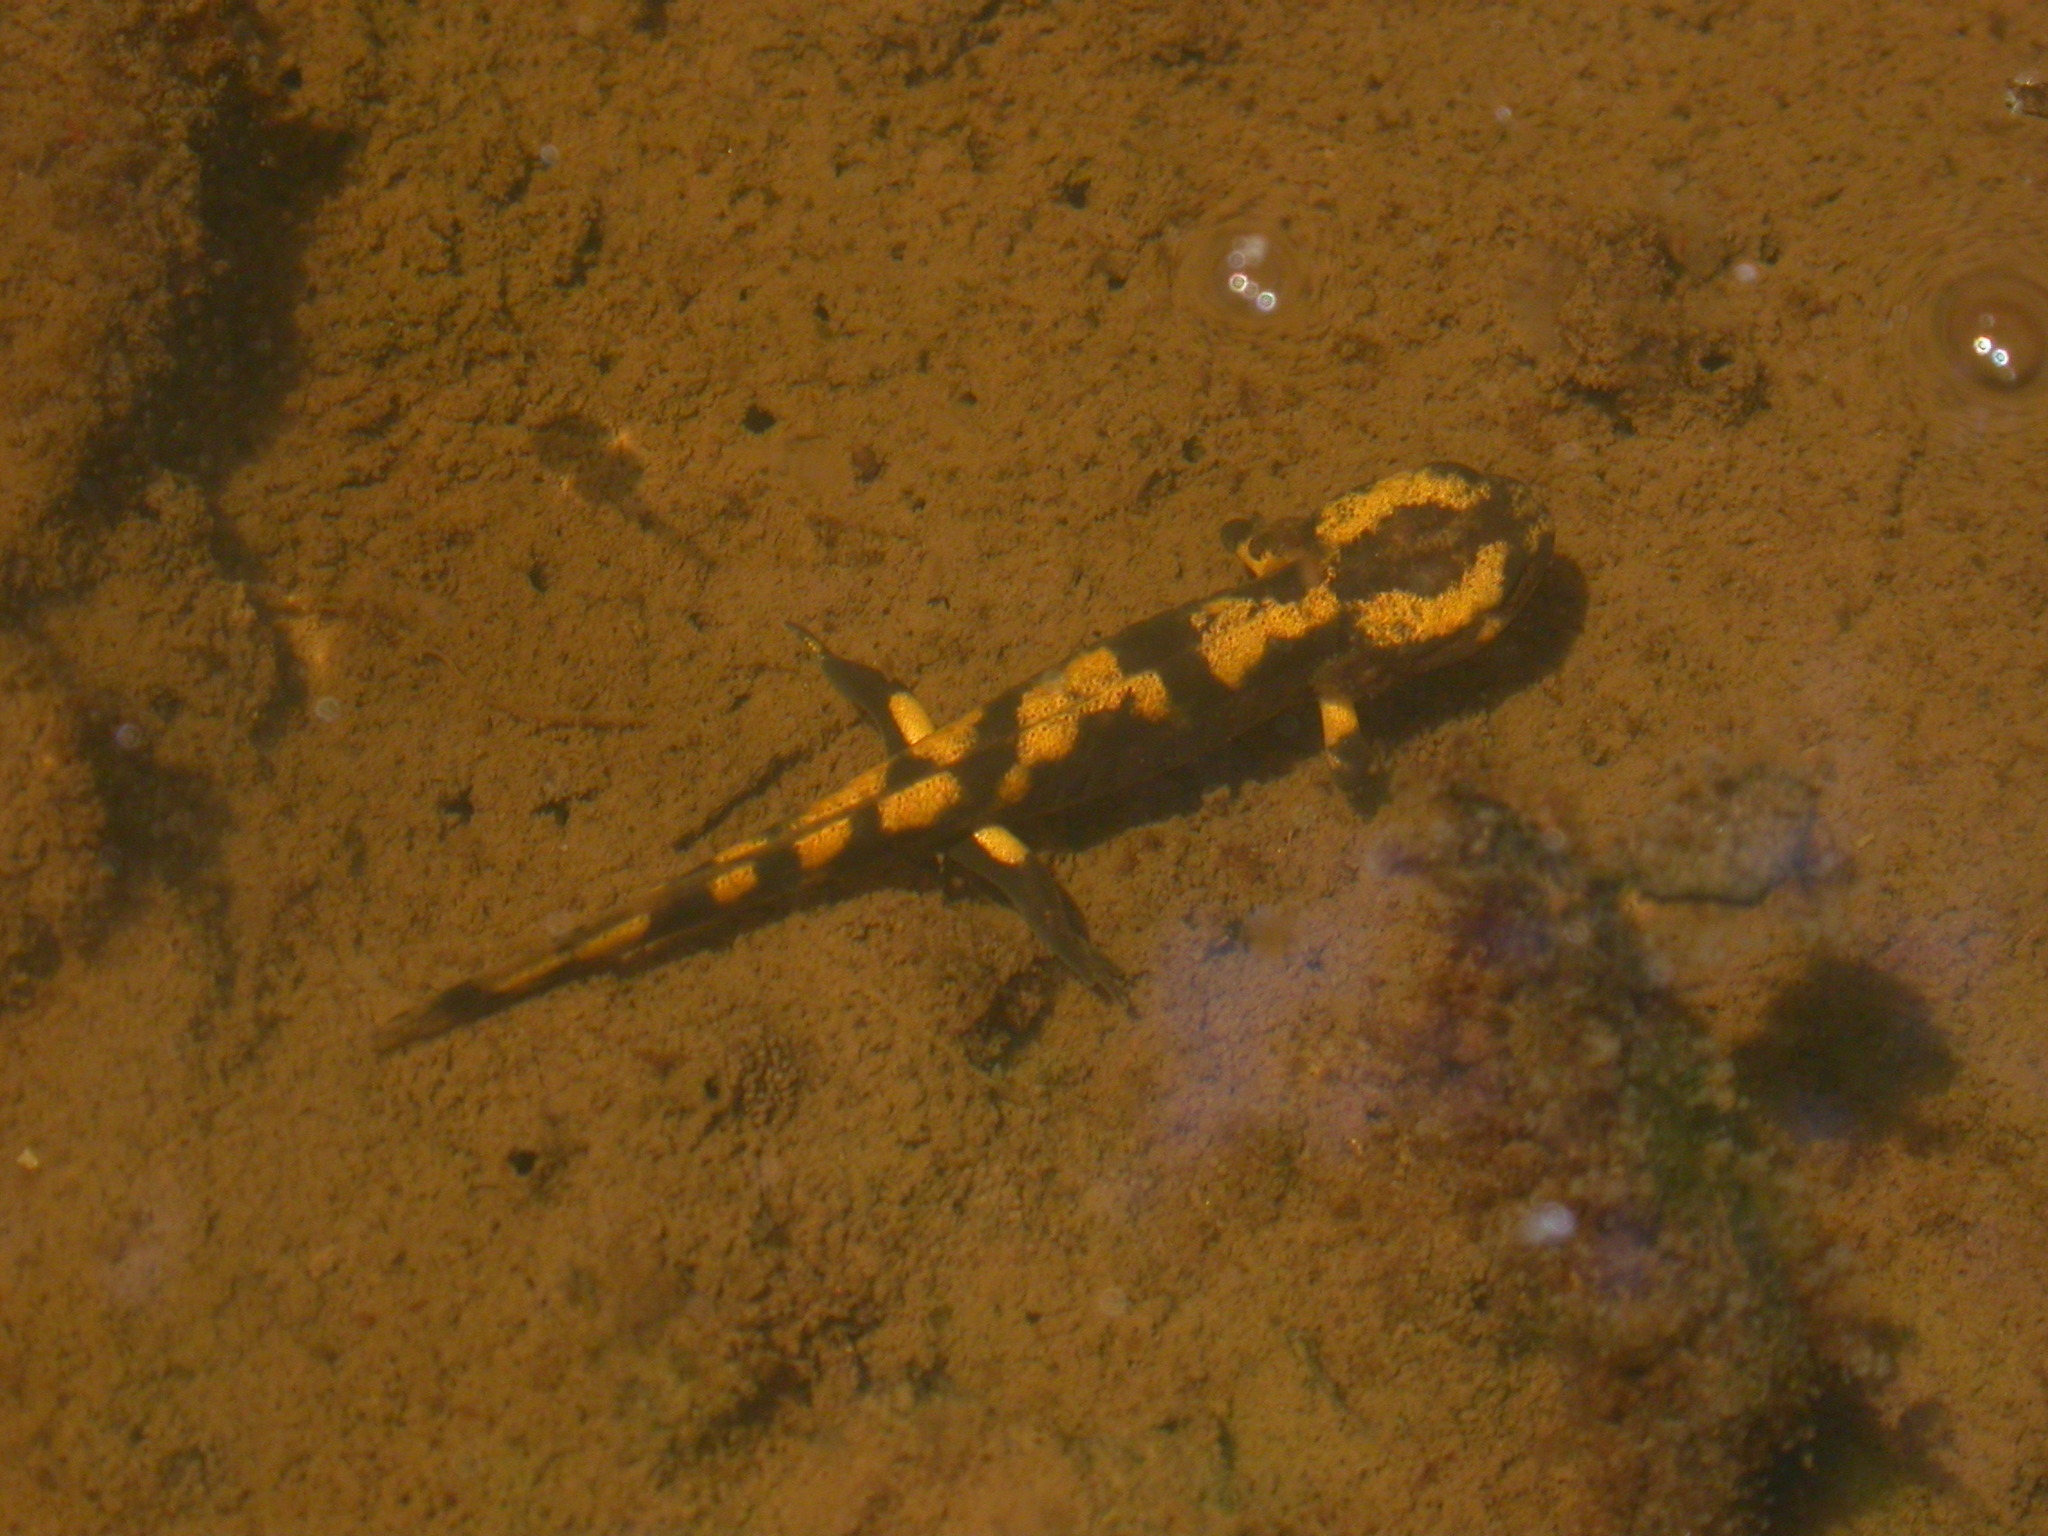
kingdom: Animalia
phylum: Chordata
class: Amphibia
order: Caudata
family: Salamandridae
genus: Salamandra
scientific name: Salamandra salamandra
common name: Fire salamander
